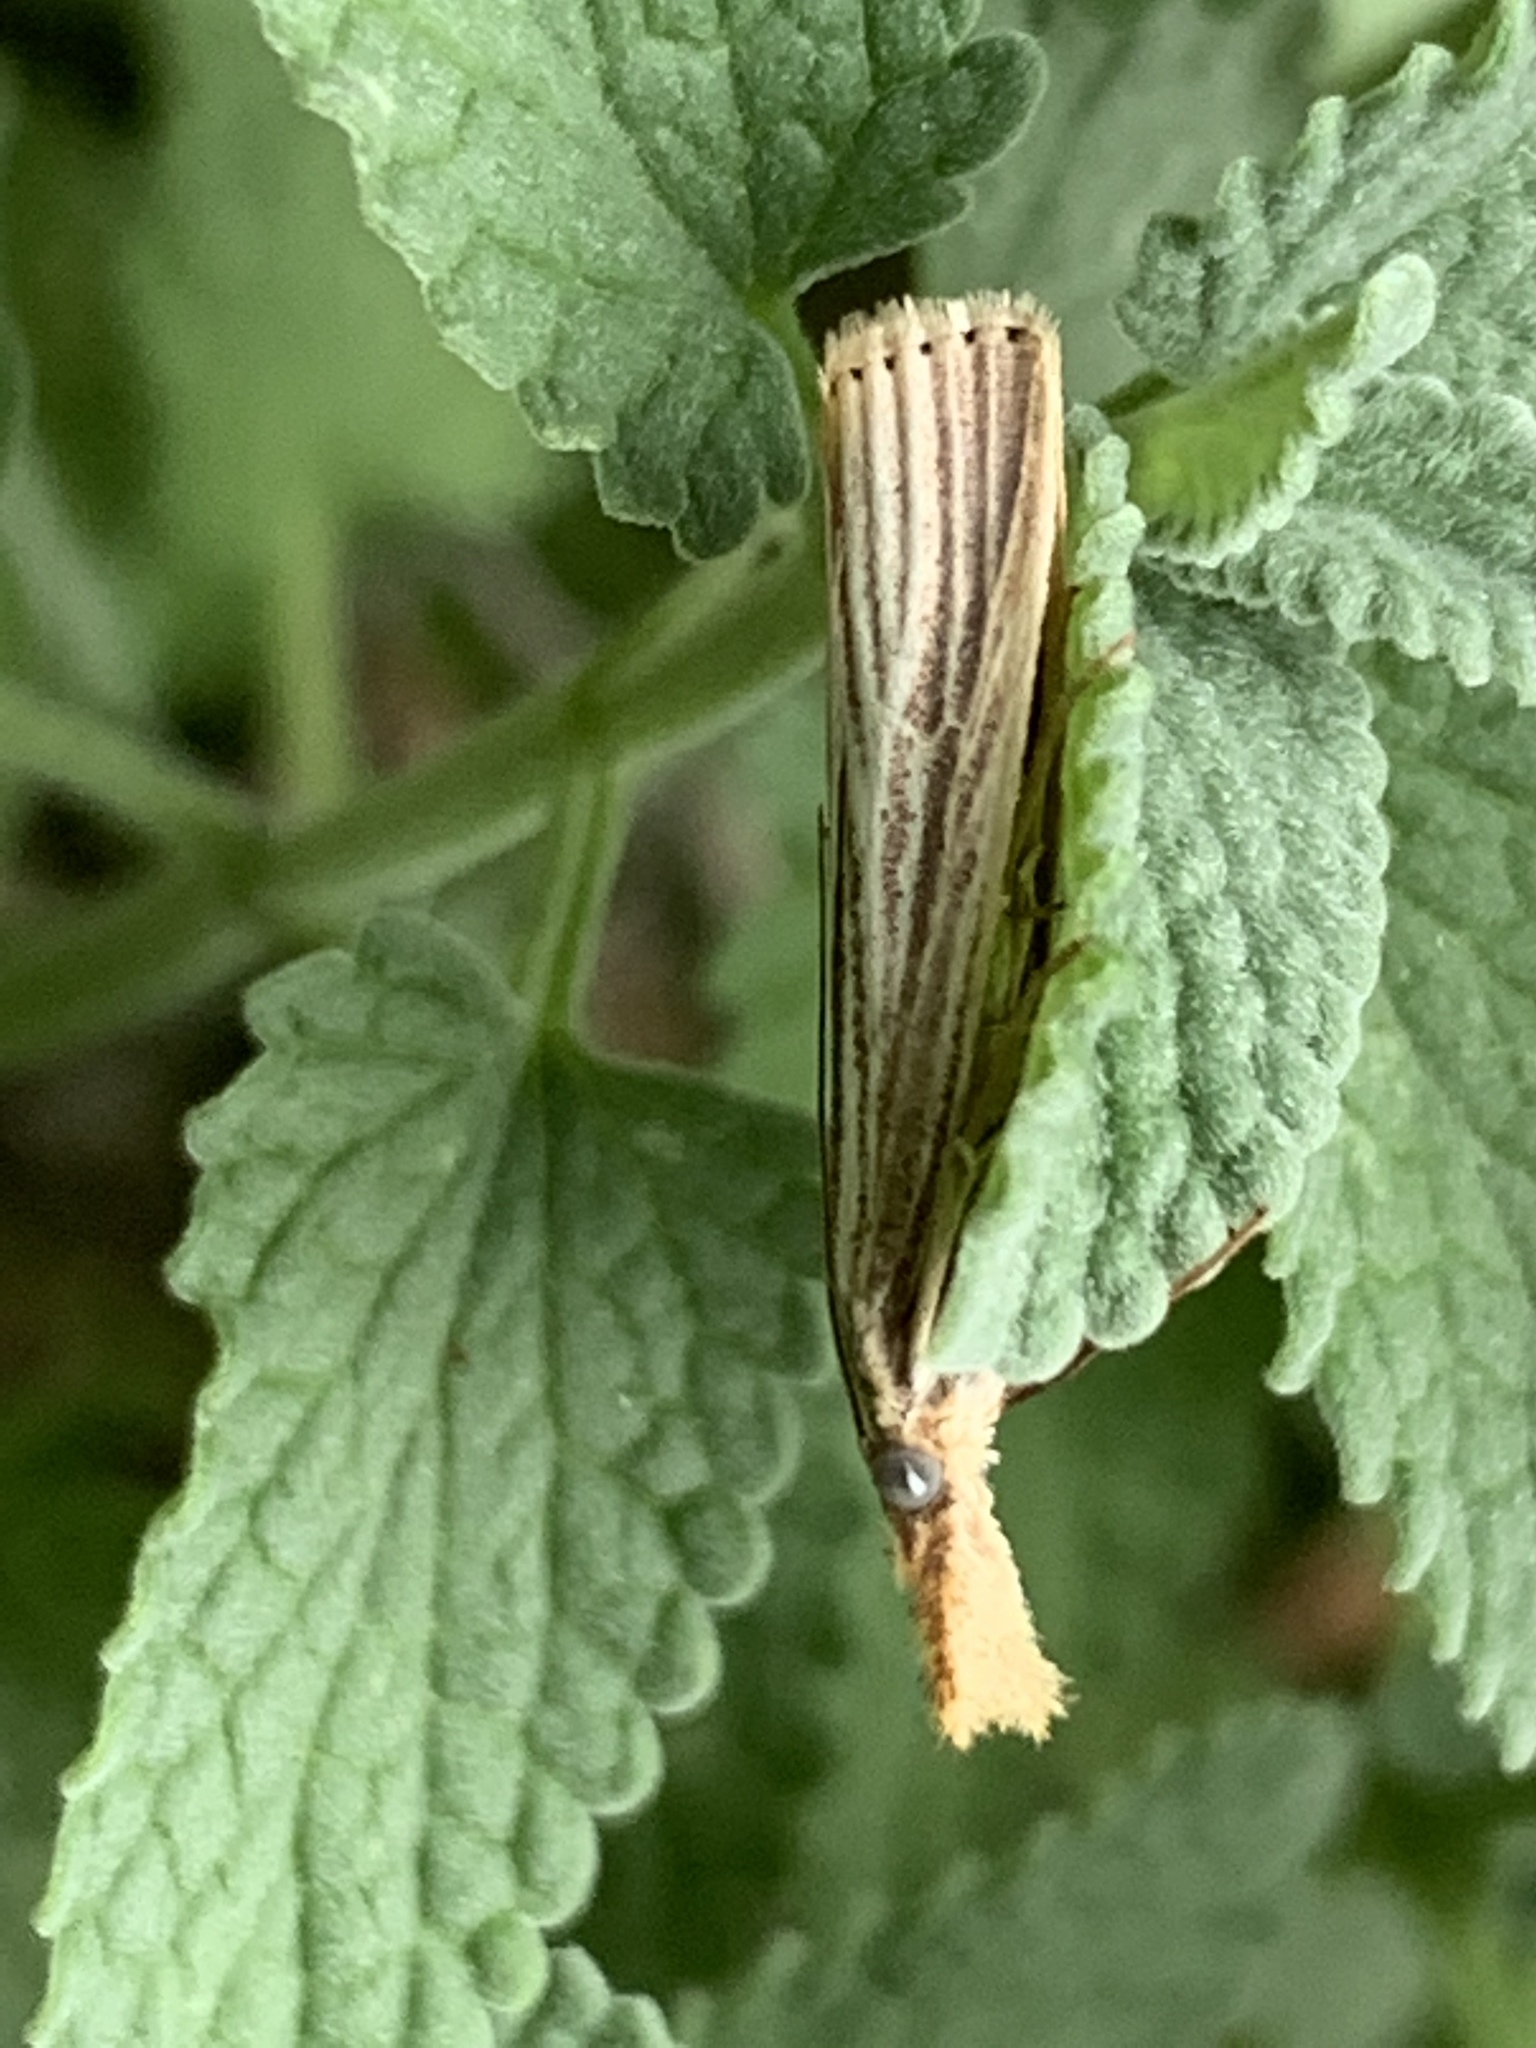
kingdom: Animalia
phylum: Arthropoda
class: Insecta
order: Lepidoptera
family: Crambidae
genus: Agriphila
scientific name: Agriphila vulgivagellus
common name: Vagabond crambus moth
